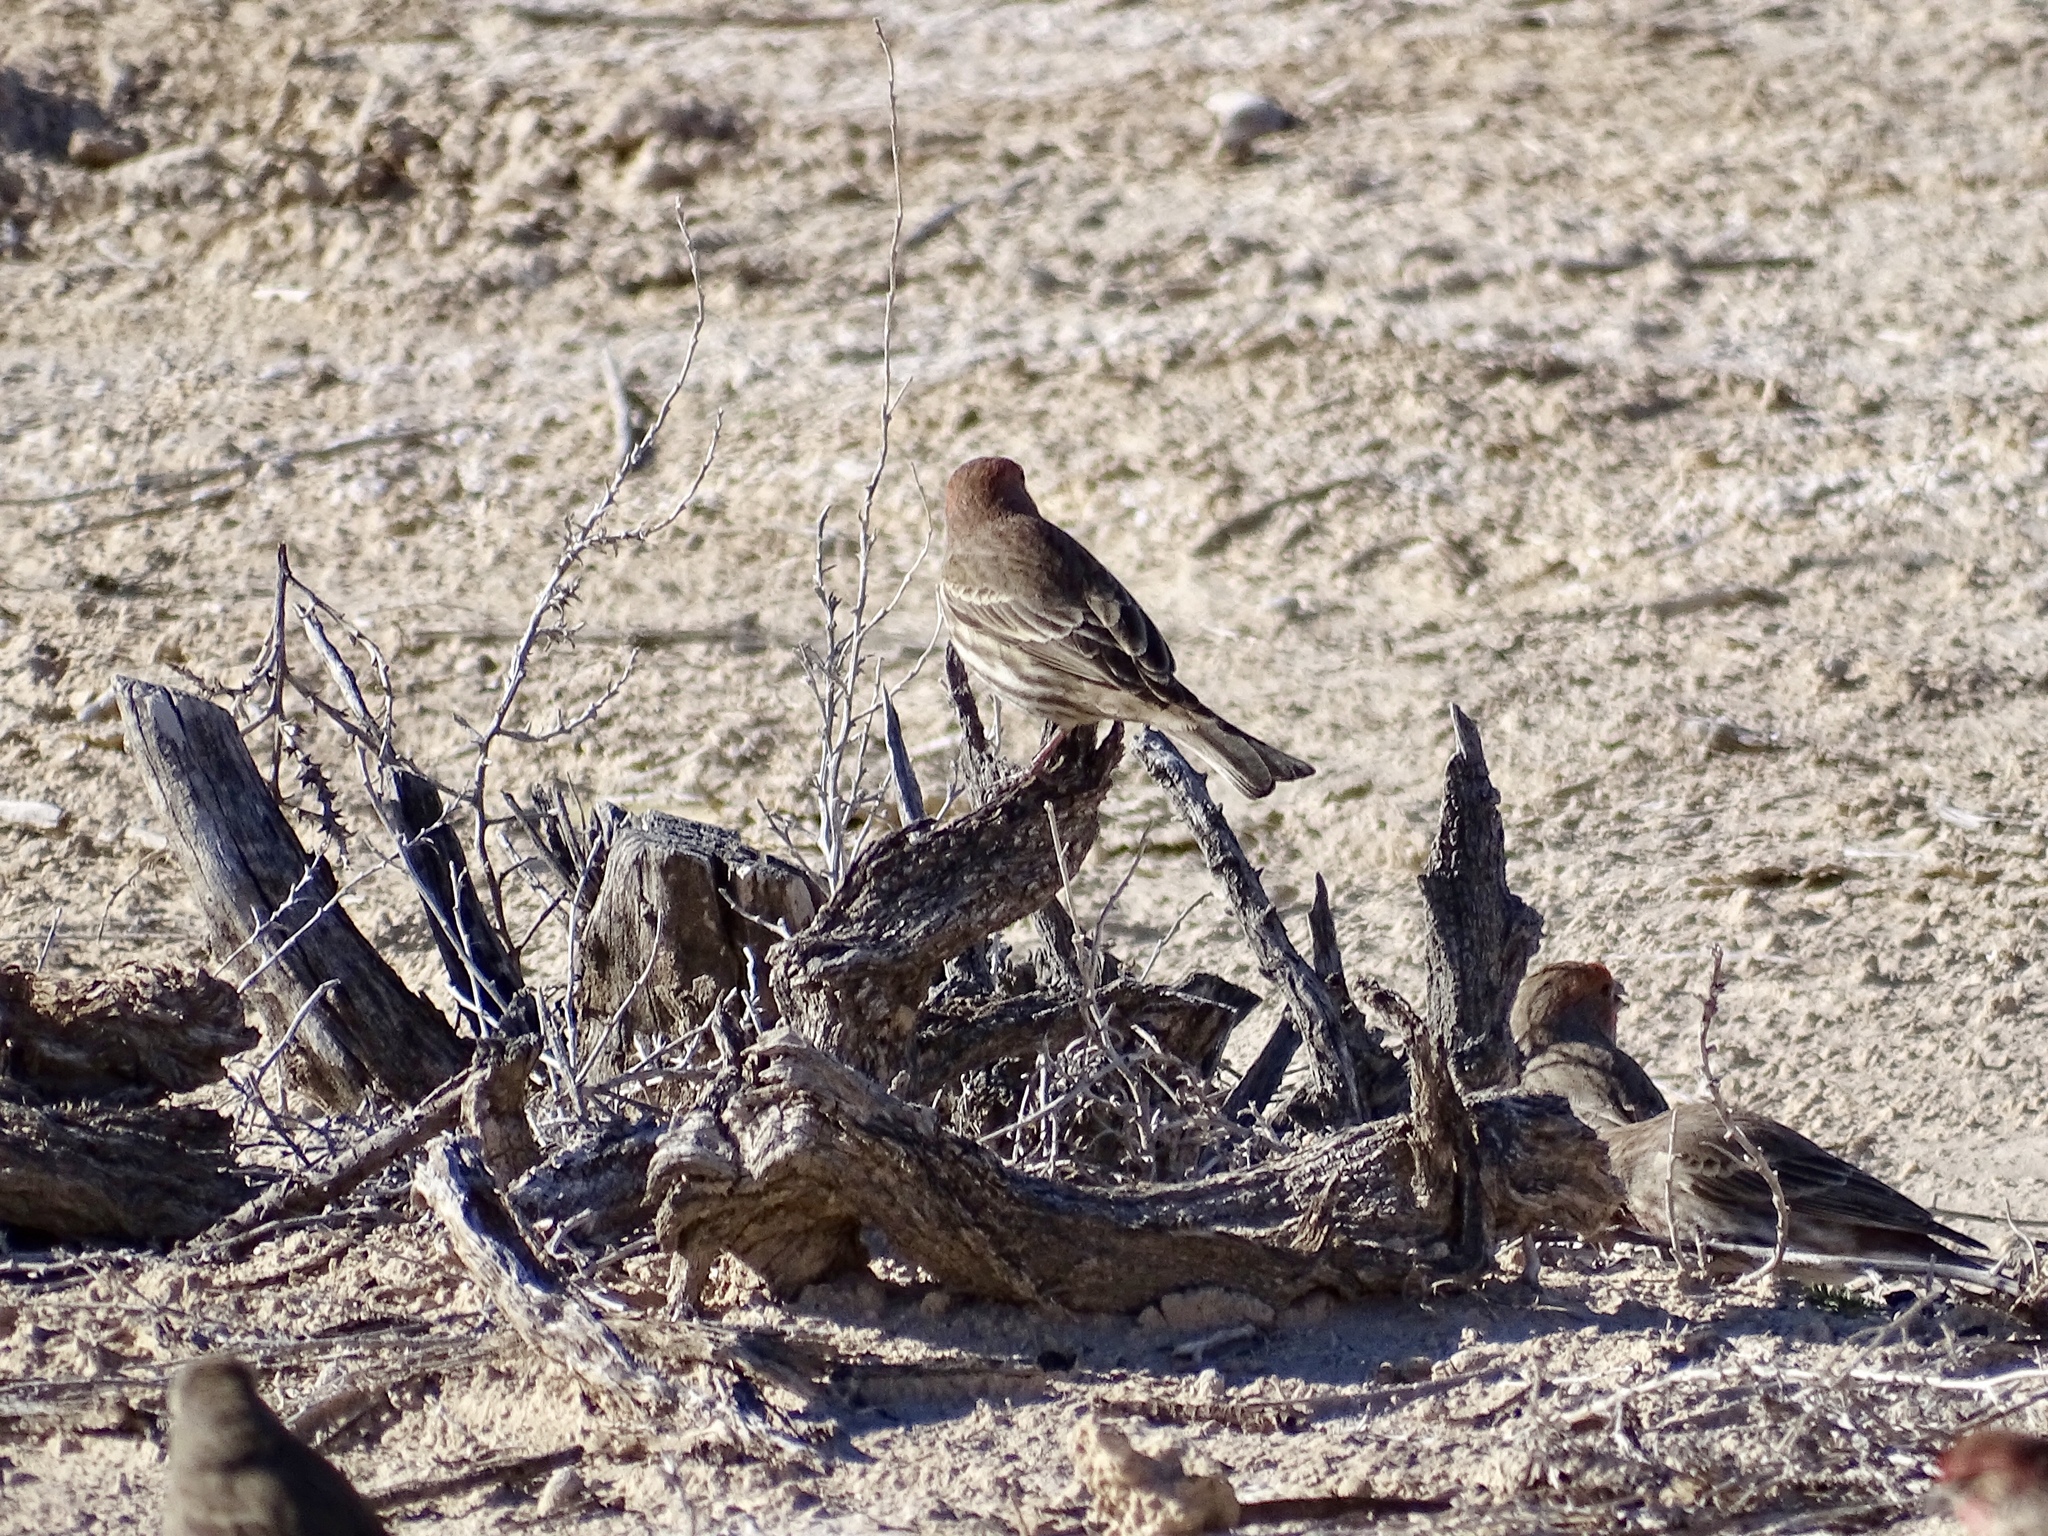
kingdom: Animalia
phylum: Chordata
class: Aves
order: Passeriformes
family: Fringillidae
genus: Haemorhous
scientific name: Haemorhous mexicanus
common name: House finch
